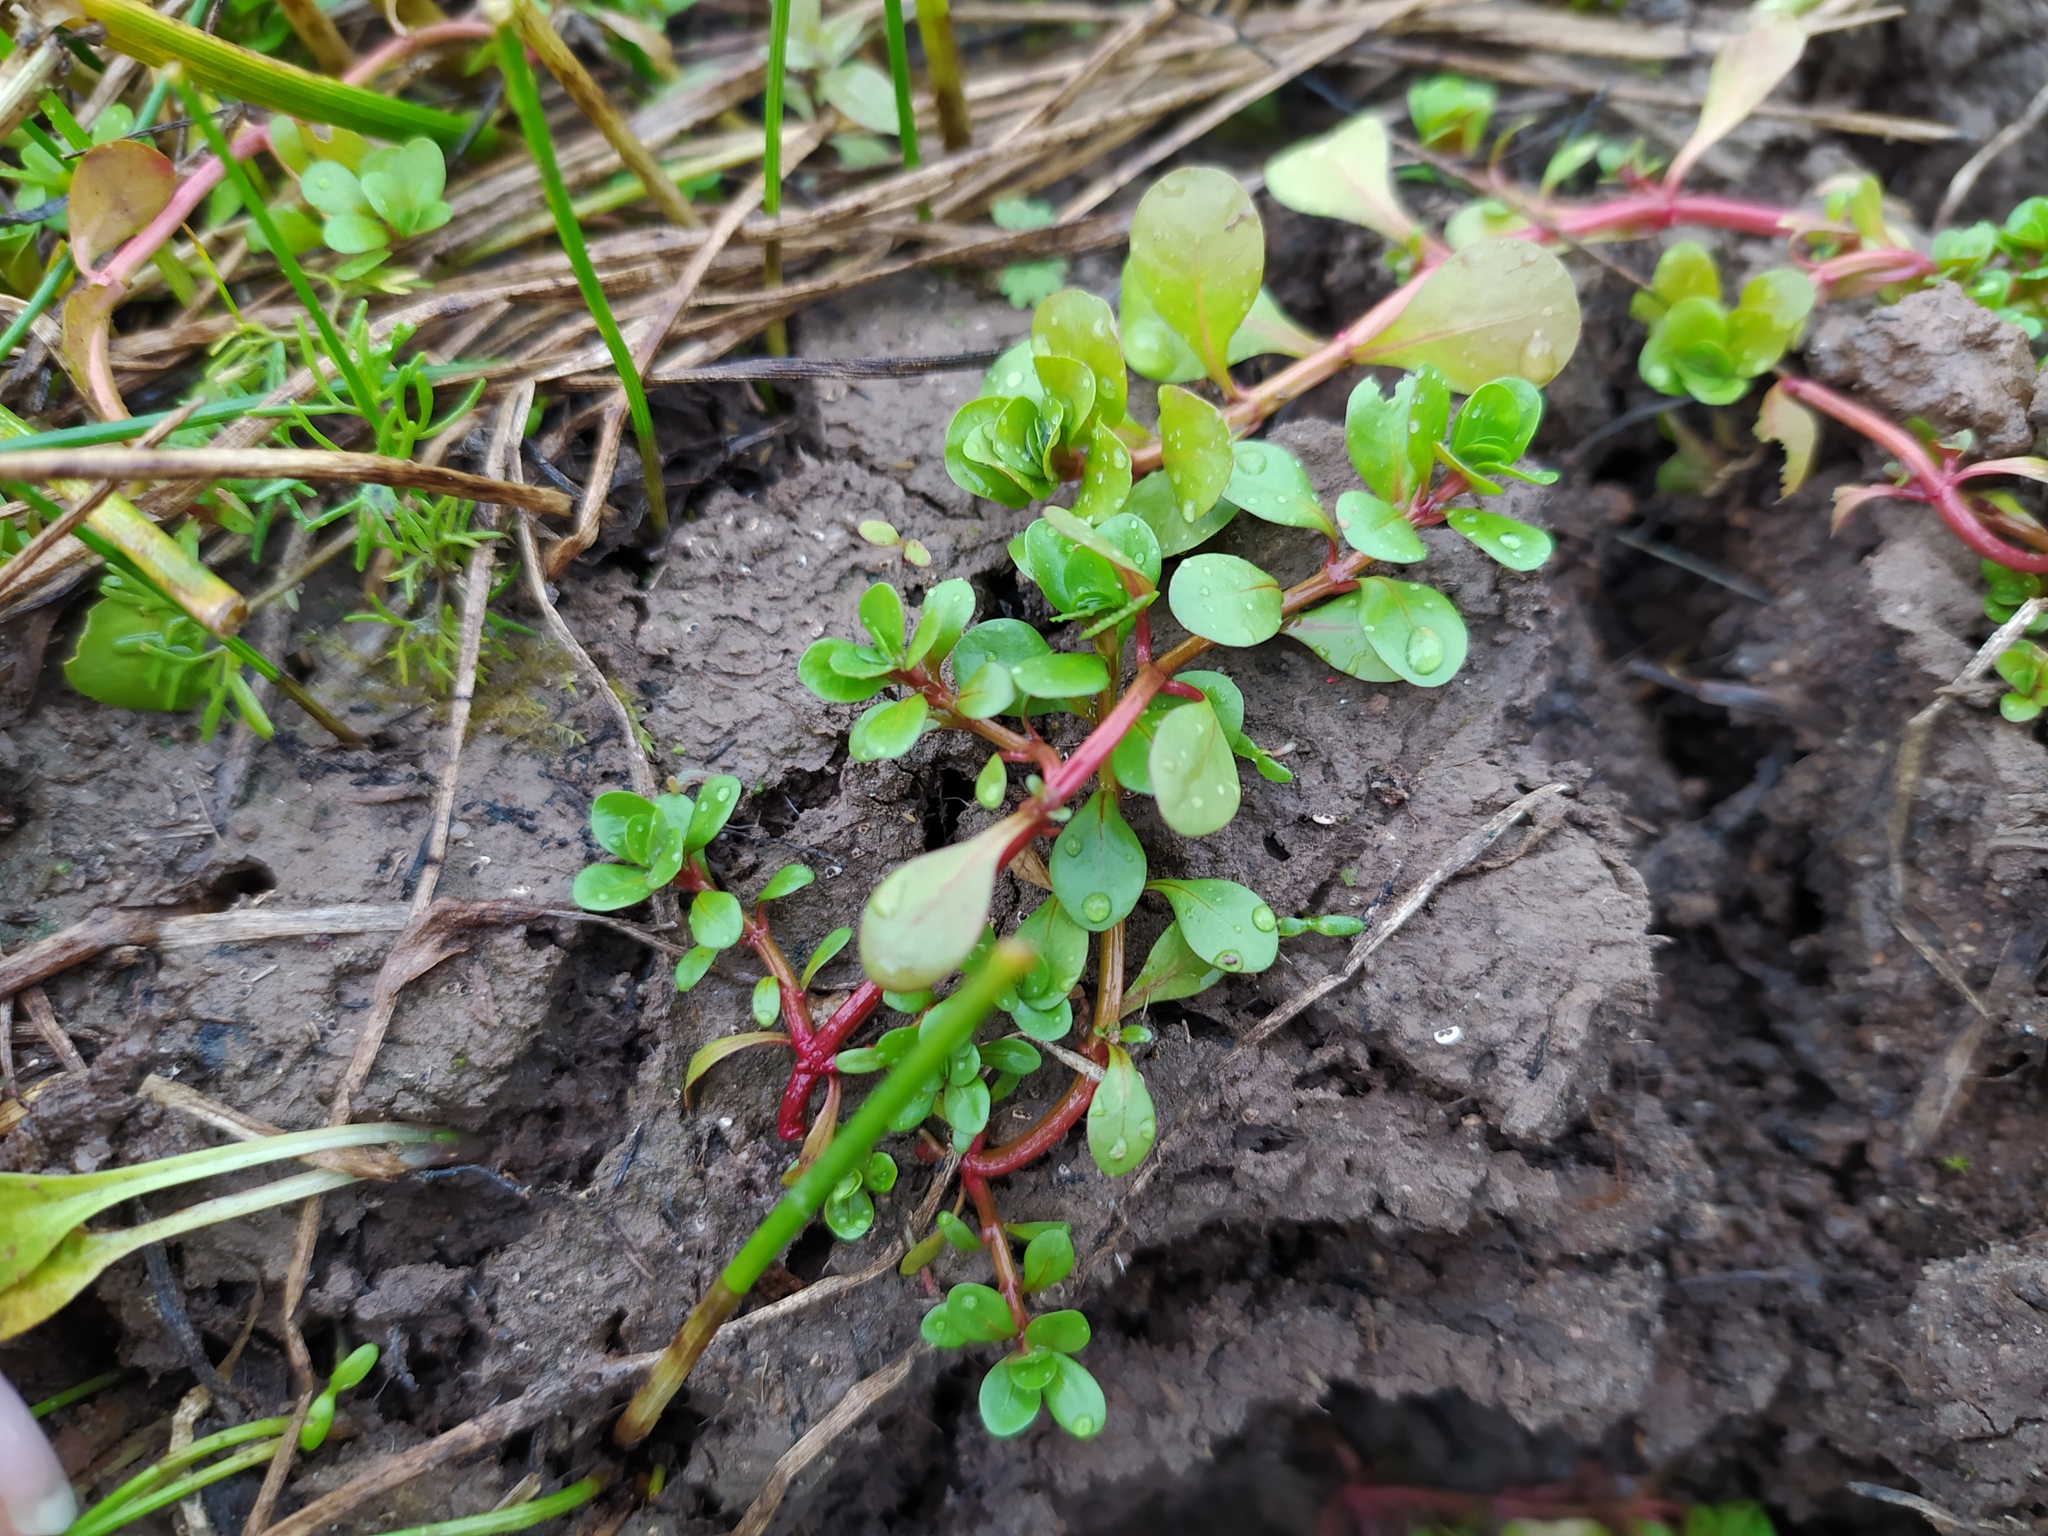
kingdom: Plantae
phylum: Tracheophyta
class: Magnoliopsida
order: Myrtales
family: Lythraceae
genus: Lythrum
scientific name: Lythrum portula
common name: Water purslane
